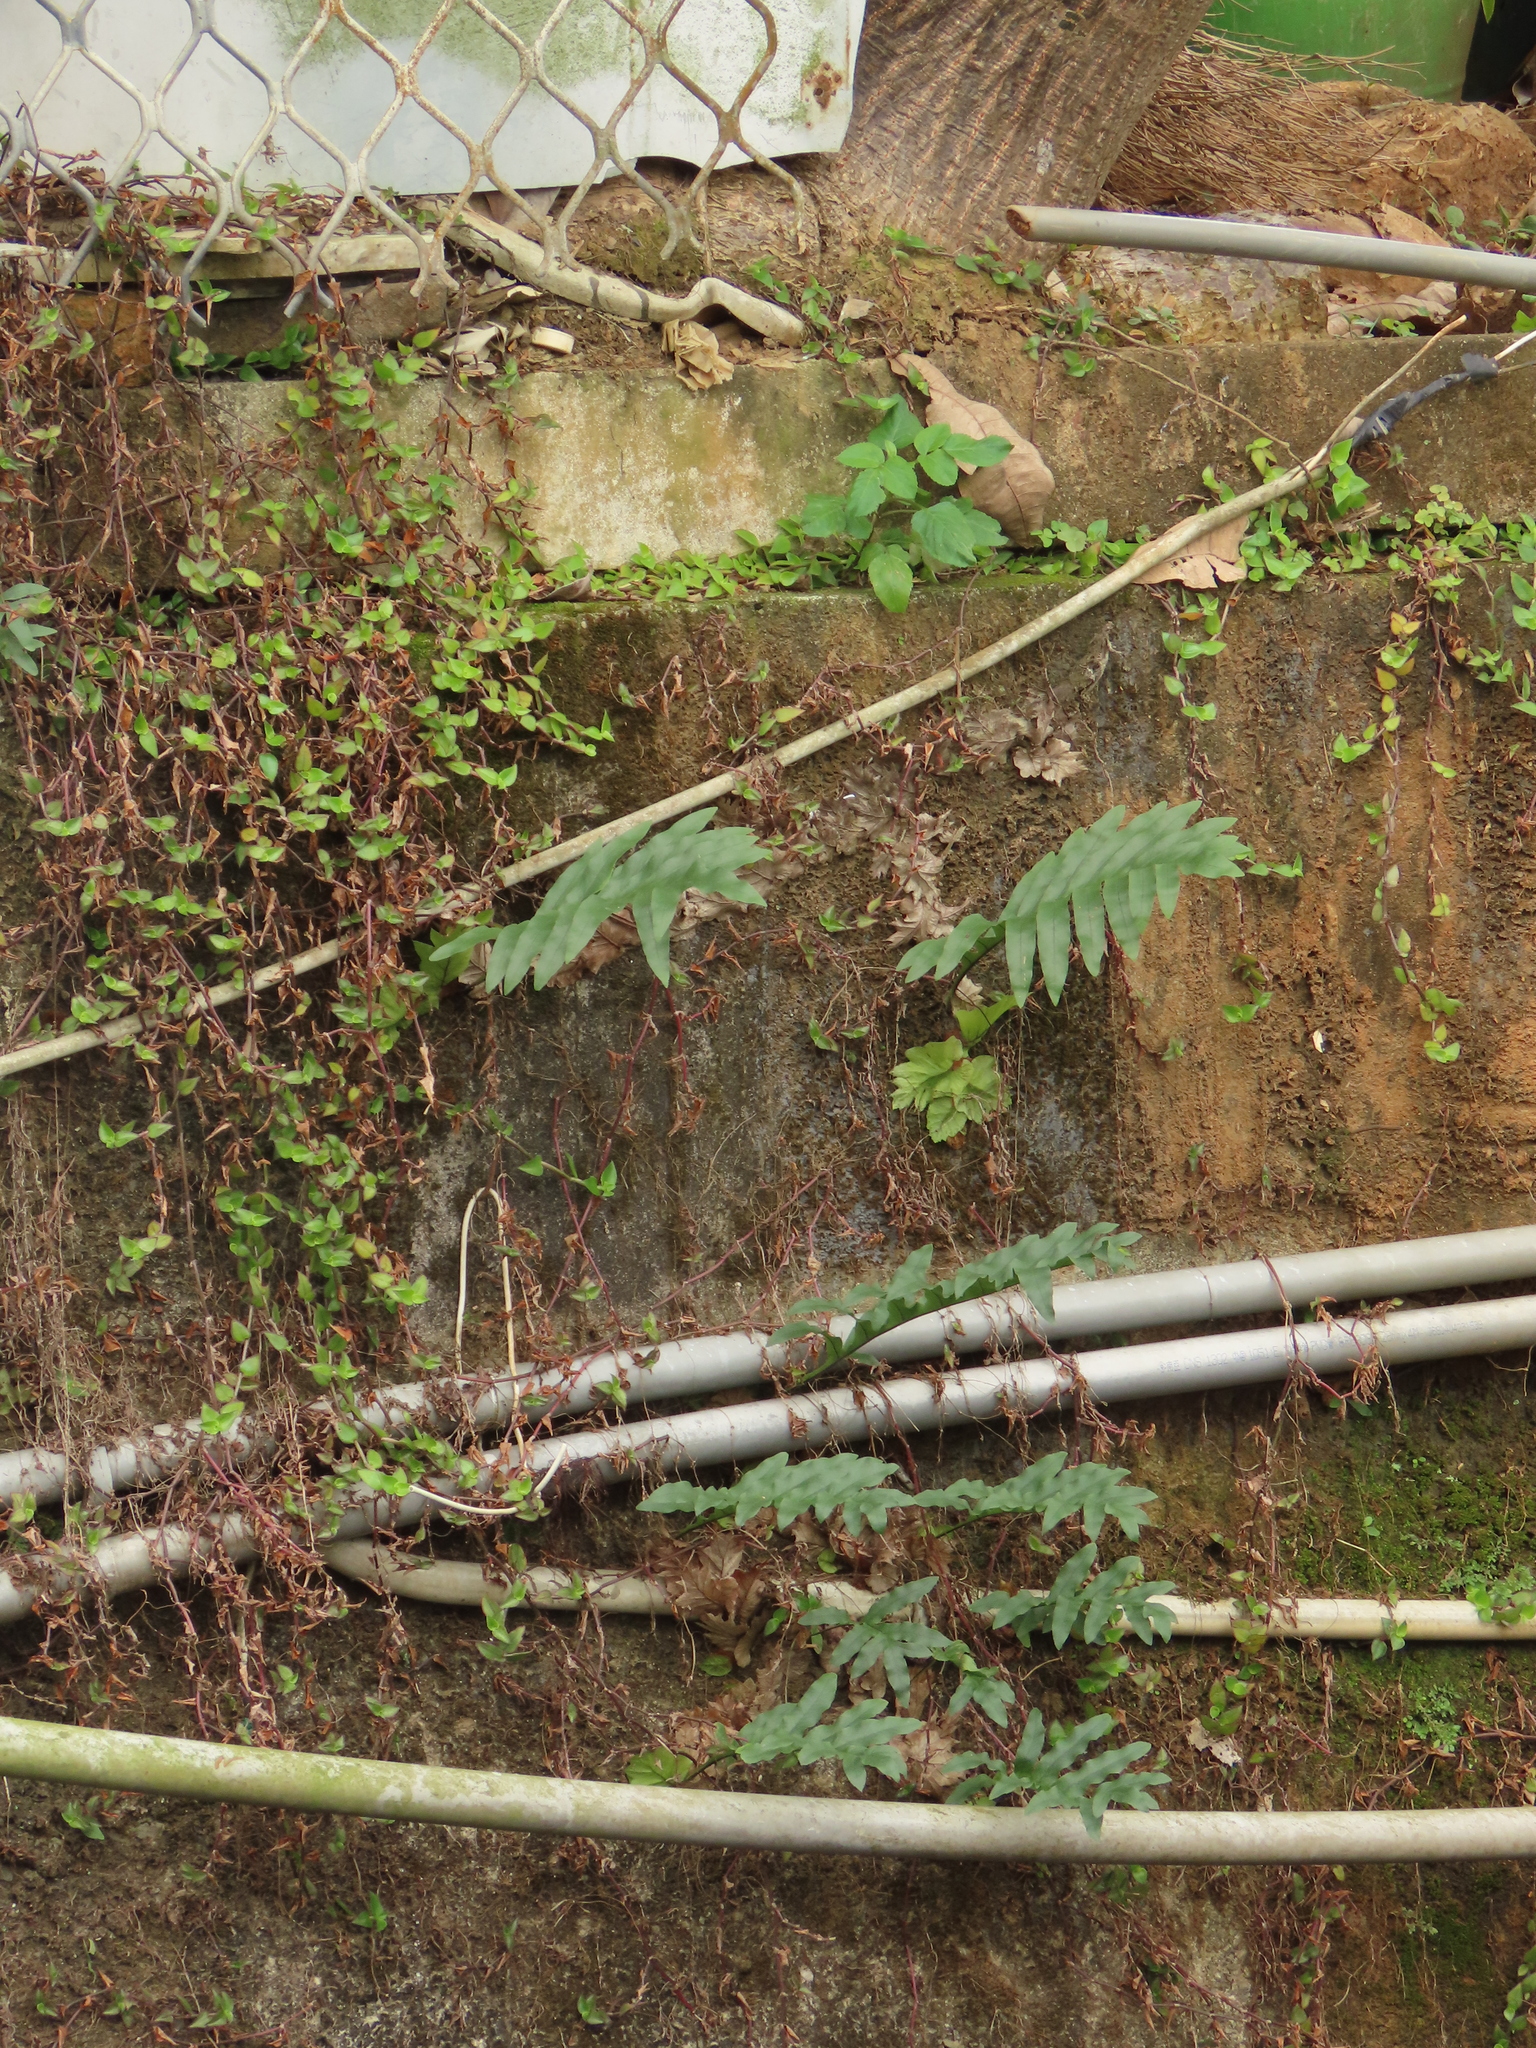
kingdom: Plantae
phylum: Tracheophyta
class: Polypodiopsida
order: Polypodiales
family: Polypodiaceae
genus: Drynaria
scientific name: Drynaria roosii
